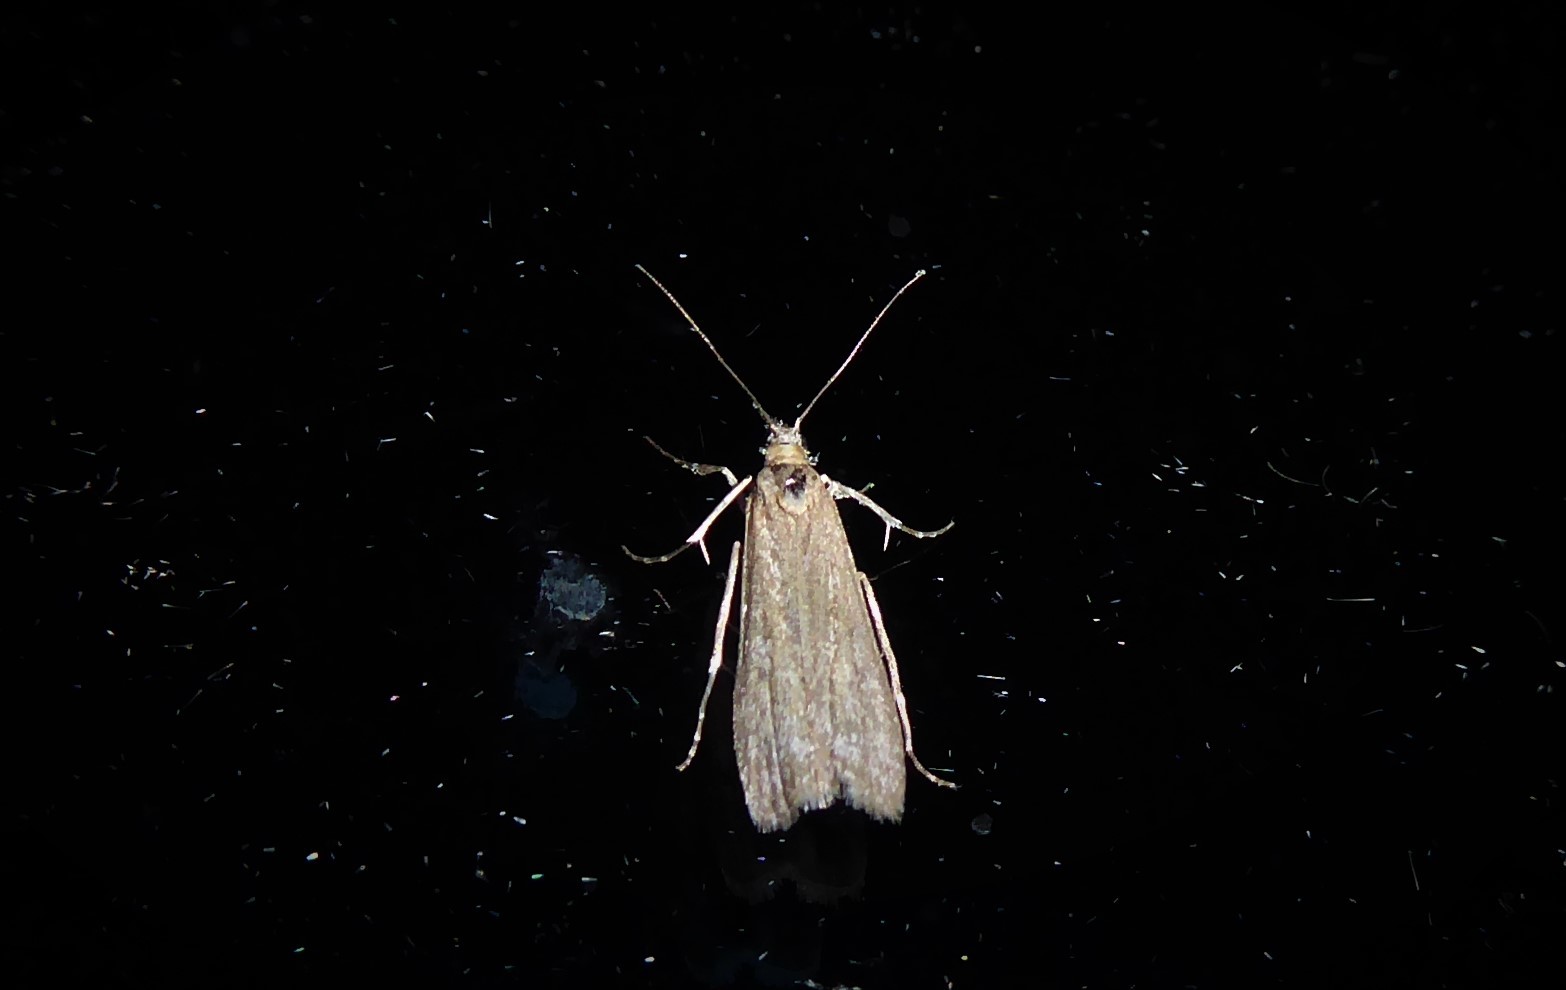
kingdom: Animalia
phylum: Arthropoda
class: Insecta
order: Lepidoptera
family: Crambidae
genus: Eudonia
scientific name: Eudonia leptalea
